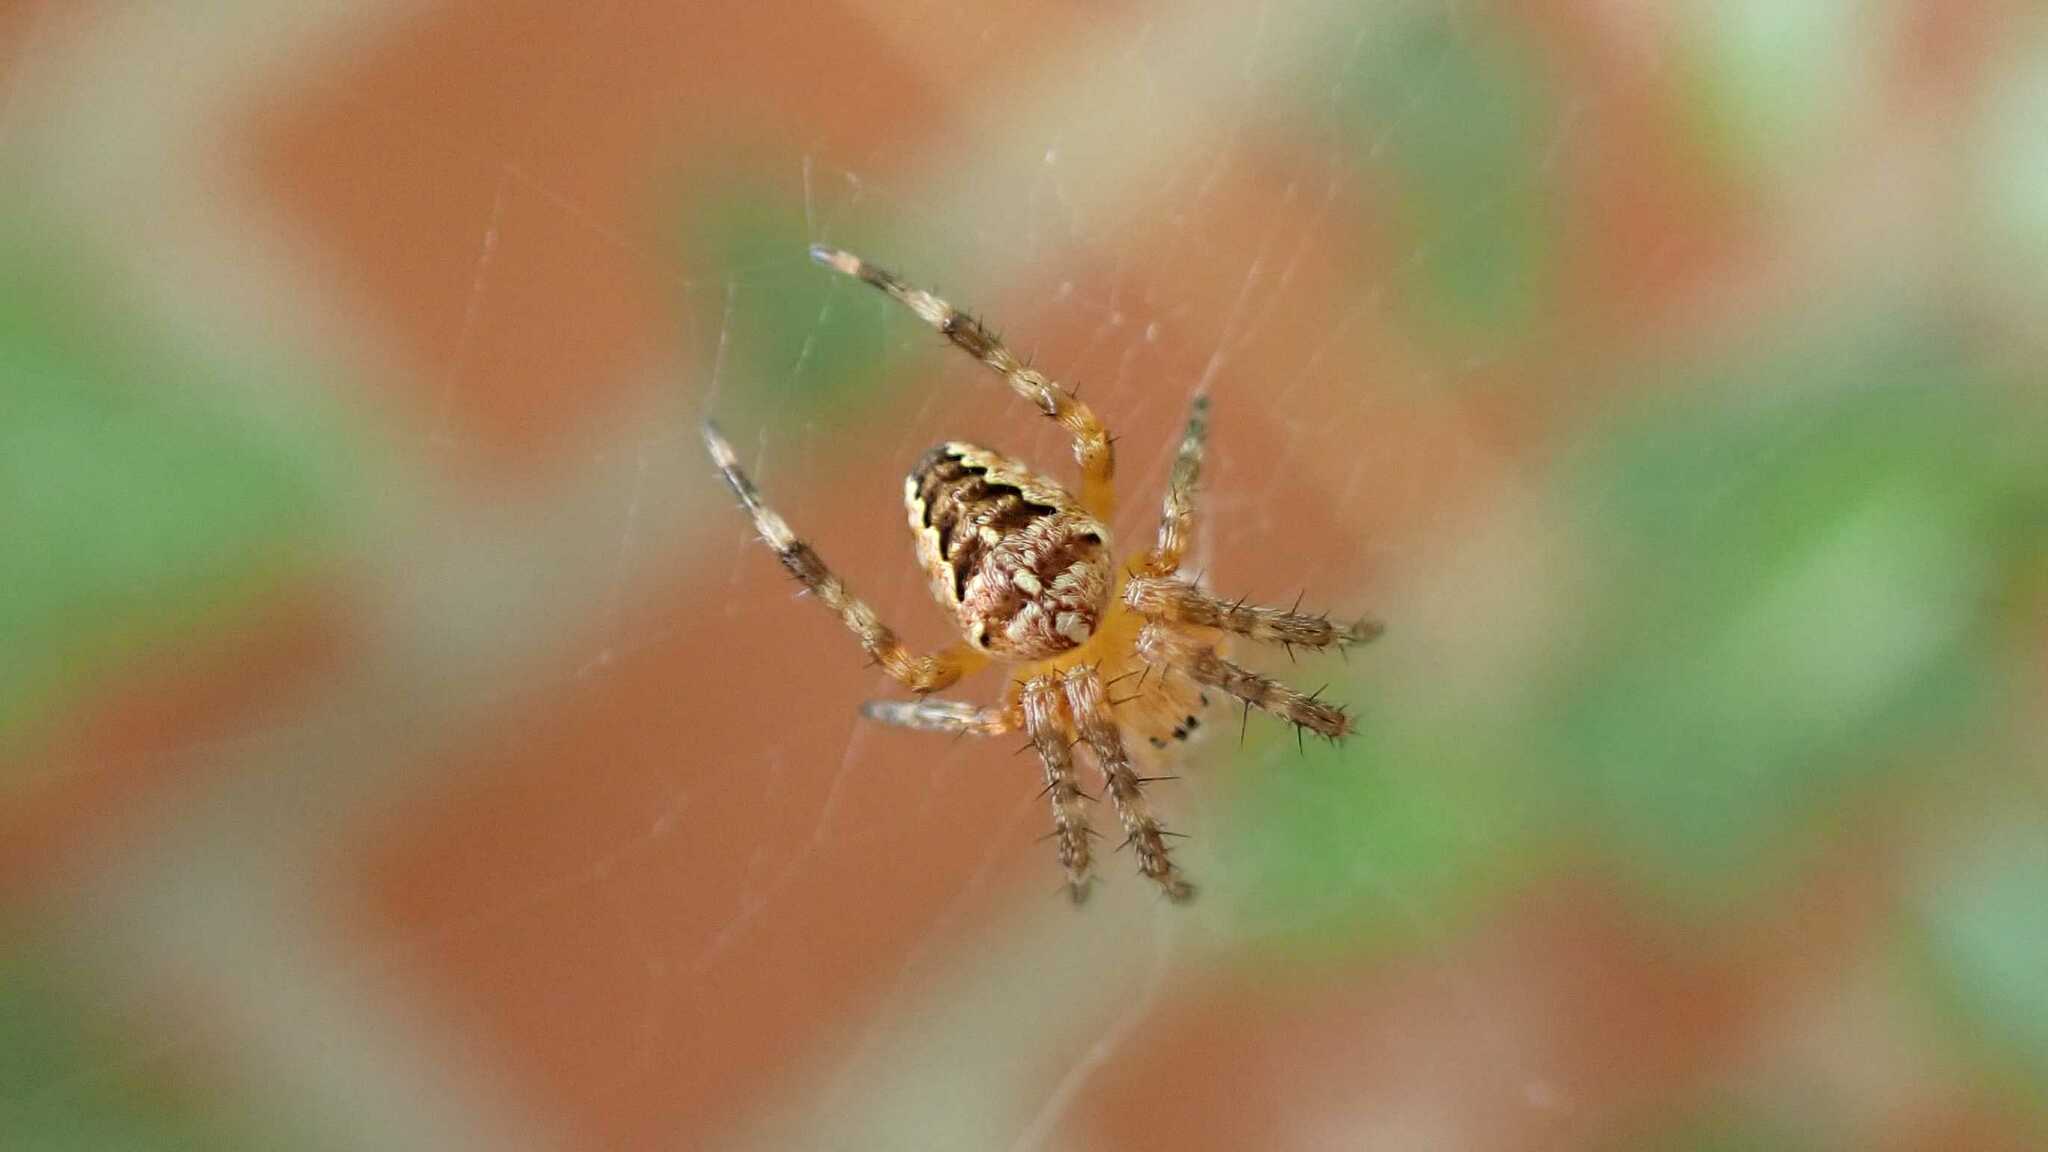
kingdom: Animalia
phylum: Arthropoda
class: Arachnida
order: Araneae
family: Araneidae
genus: Araneus
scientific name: Araneus diadematus
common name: Cross orbweaver
